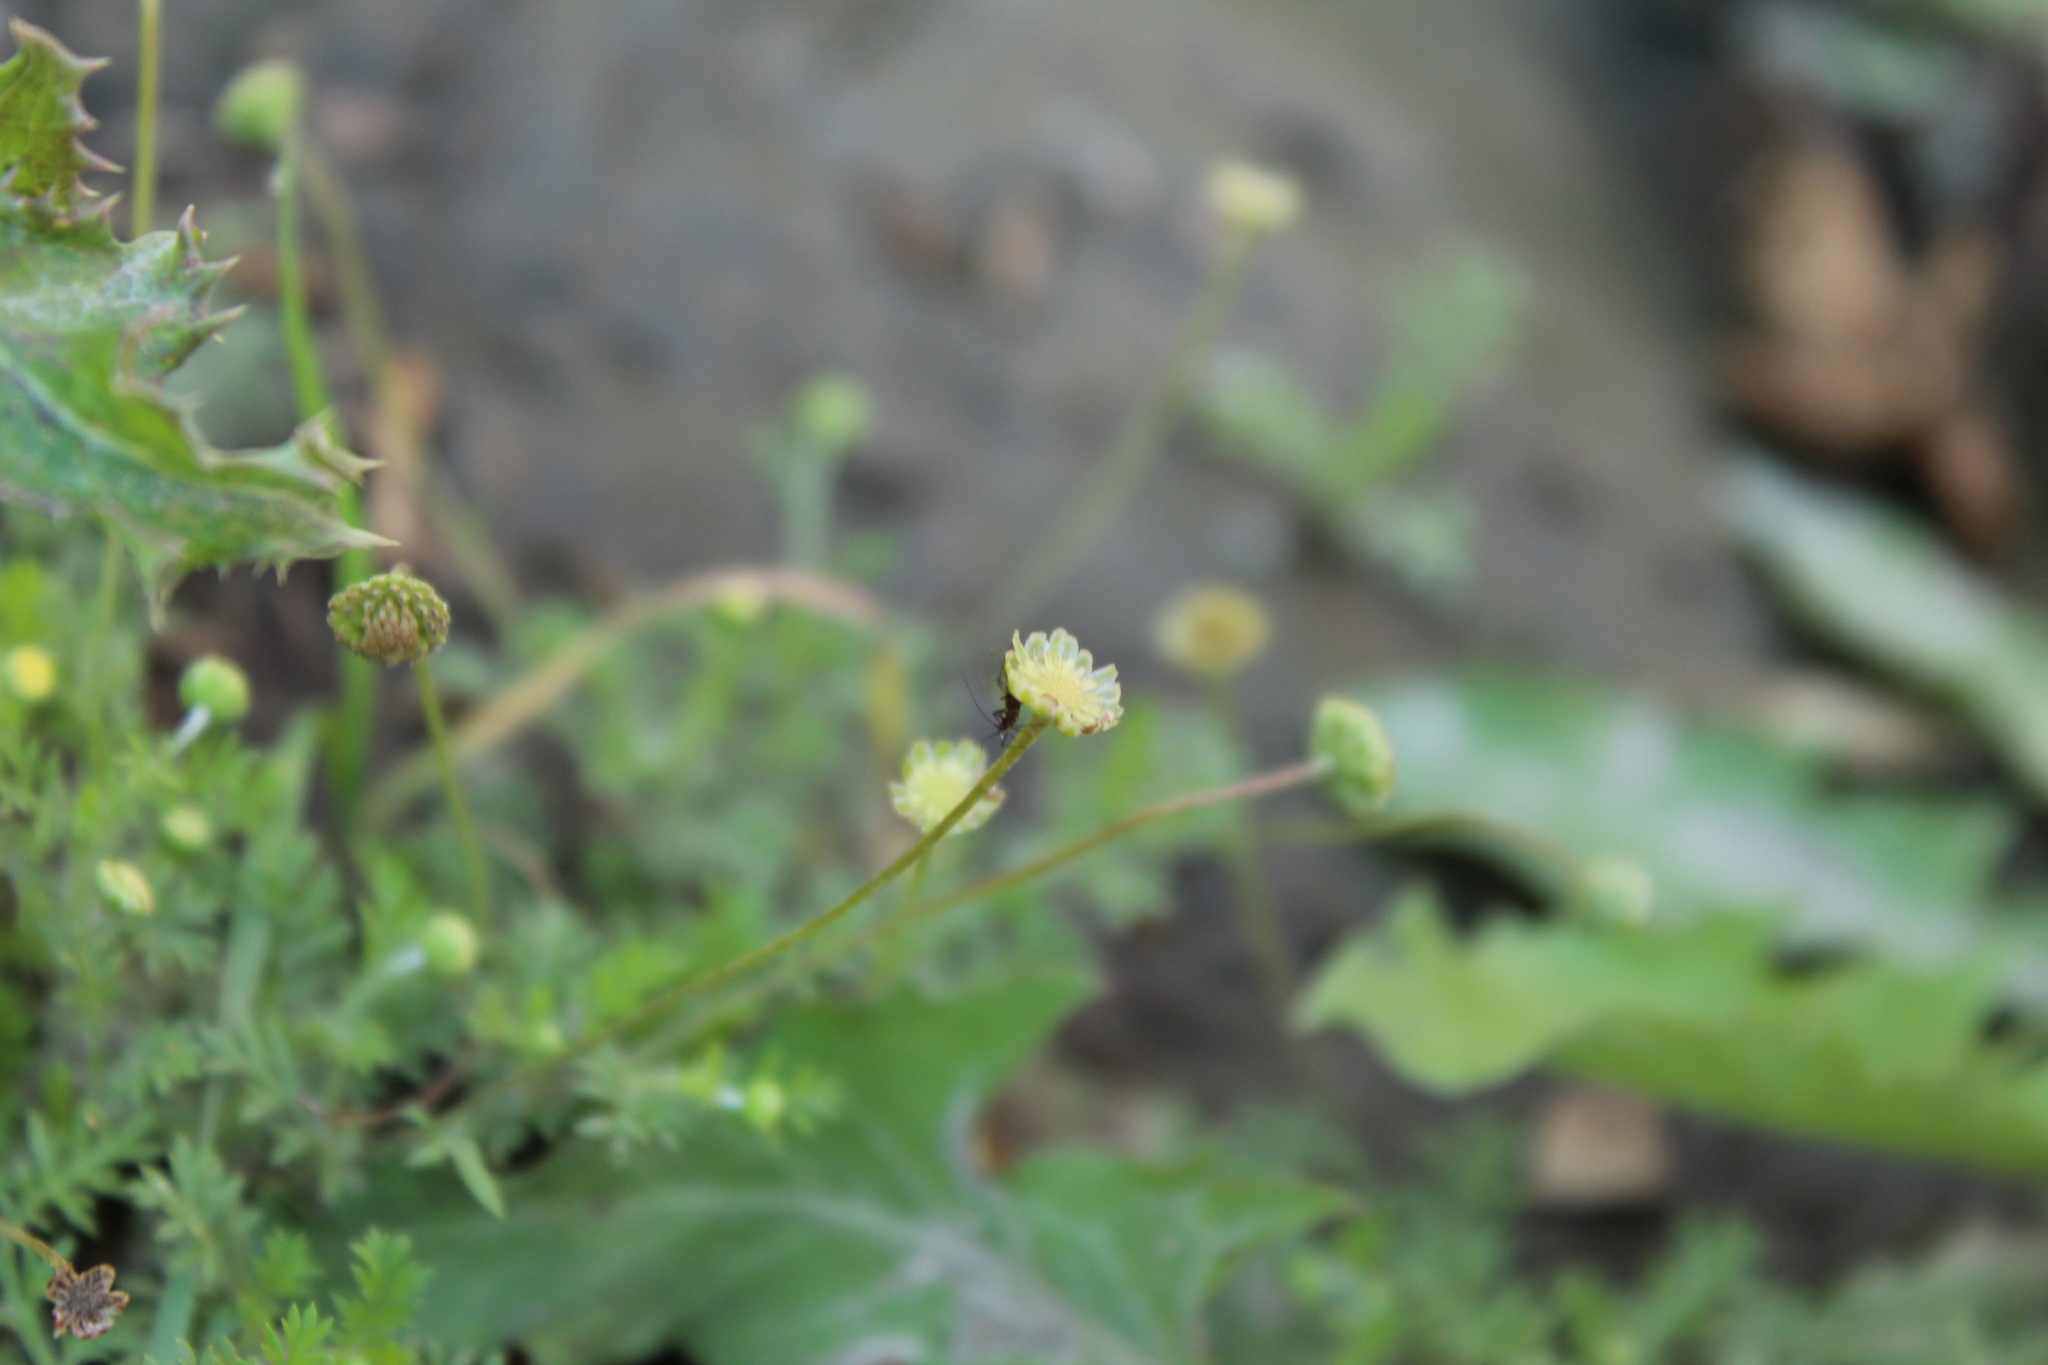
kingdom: Plantae
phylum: Tracheophyta
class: Magnoliopsida
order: Asterales
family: Asteraceae
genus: Cotula
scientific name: Cotula australis
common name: Australian waterbuttons
